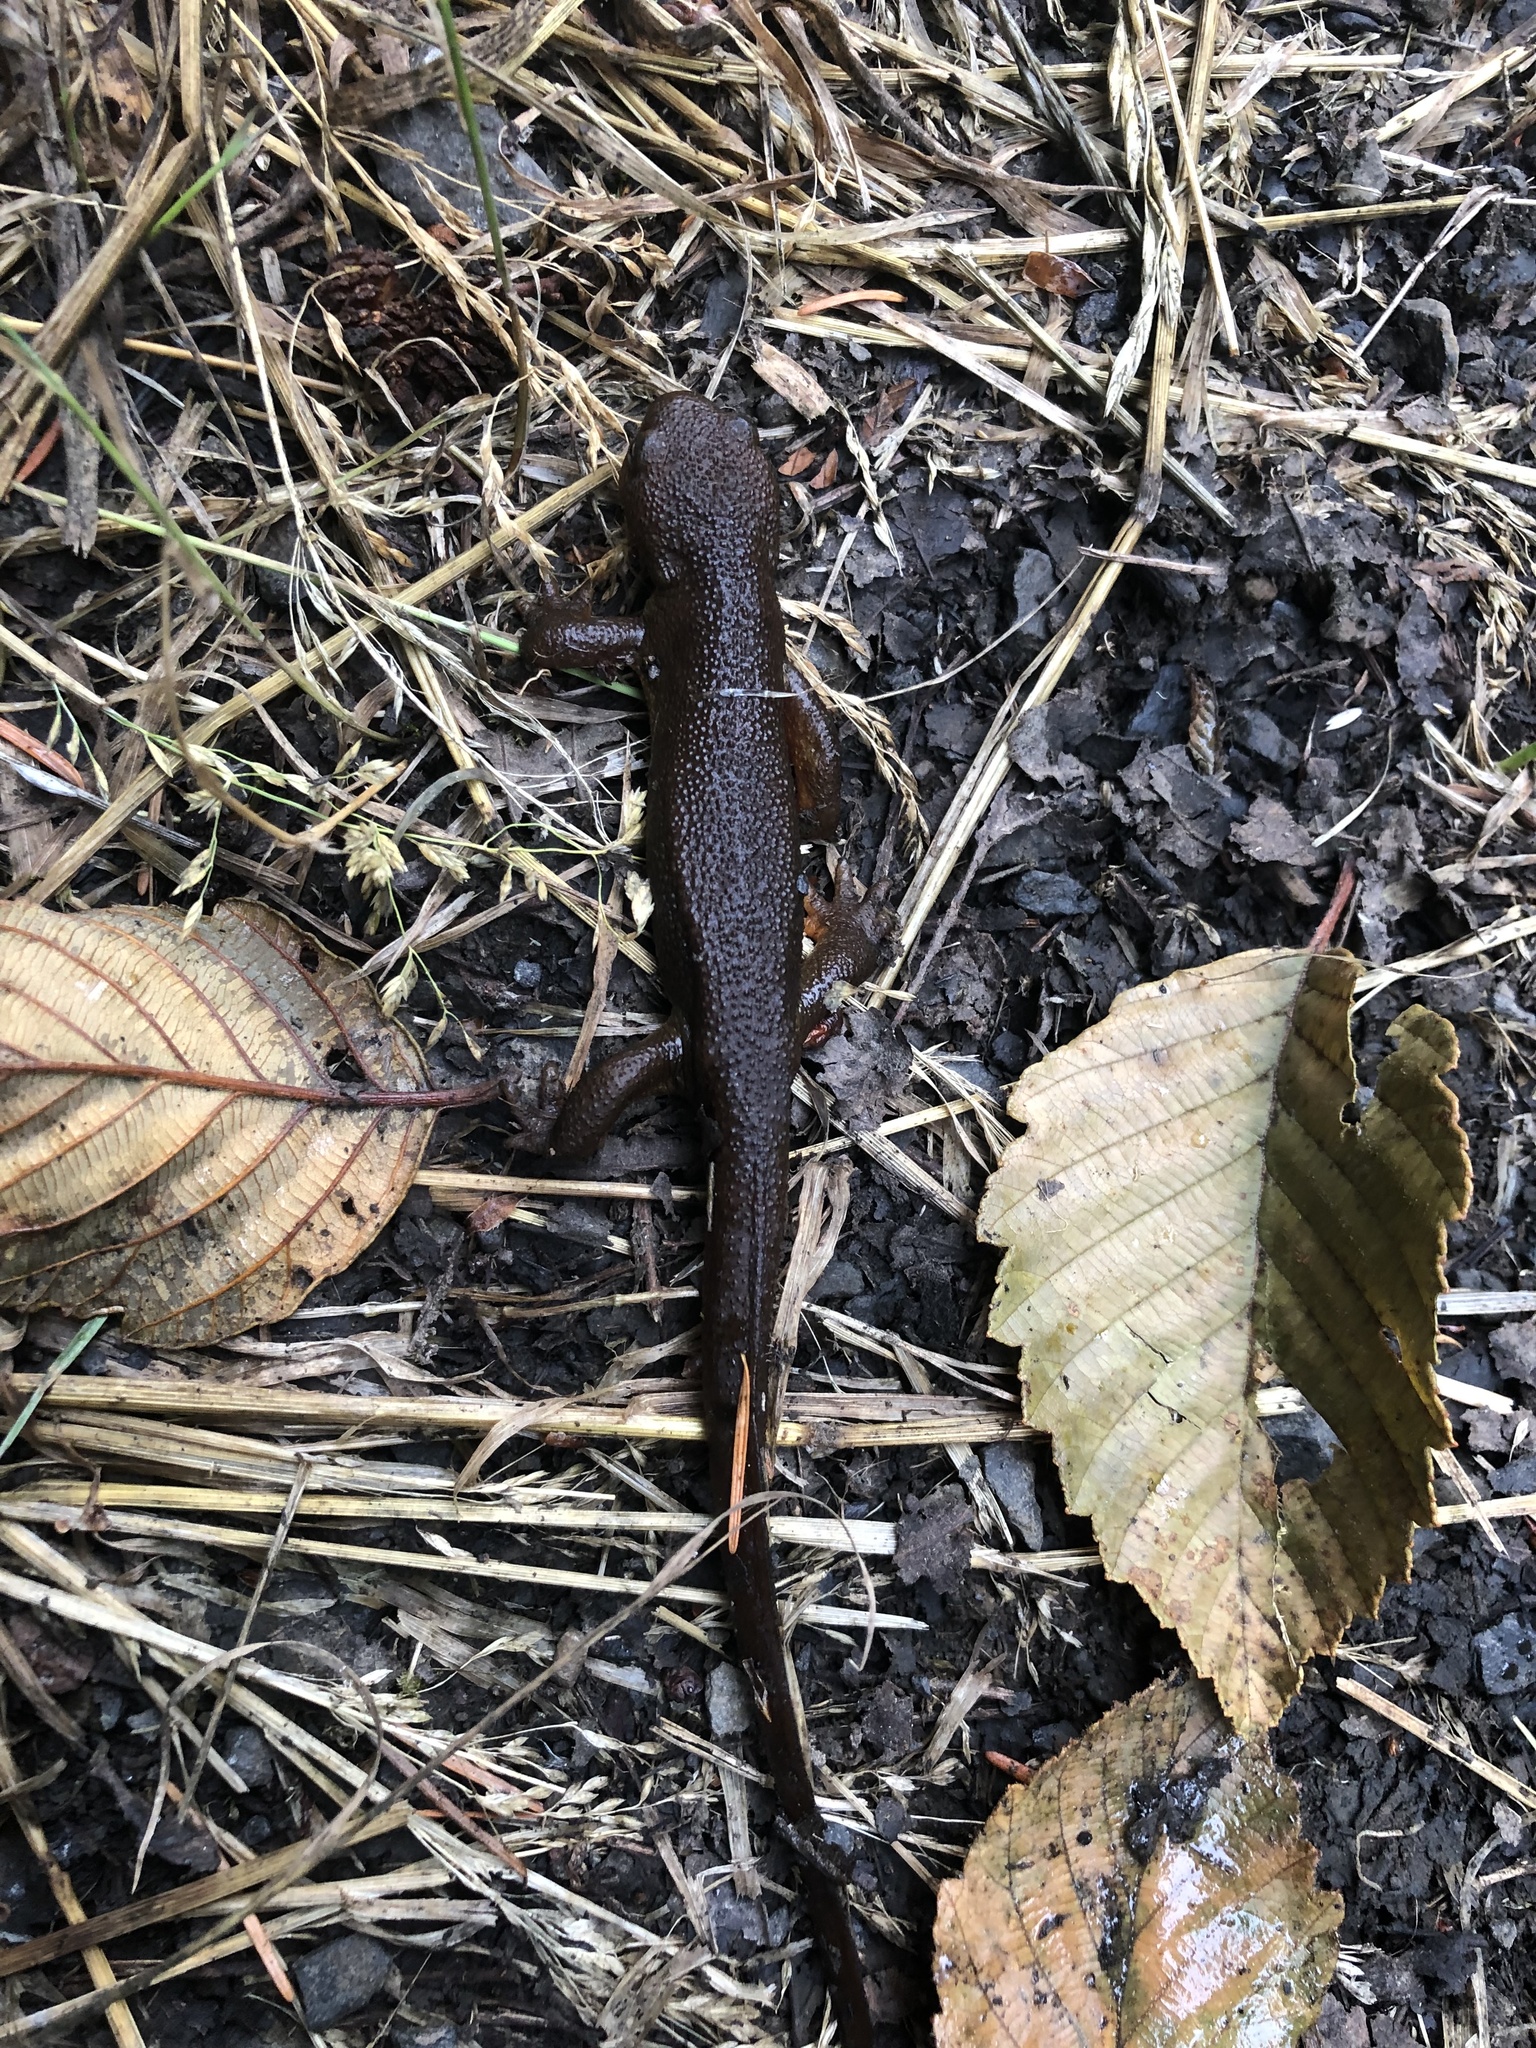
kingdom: Animalia
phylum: Chordata
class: Amphibia
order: Caudata
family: Salamandridae
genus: Taricha
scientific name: Taricha granulosa
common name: Roughskin newt
